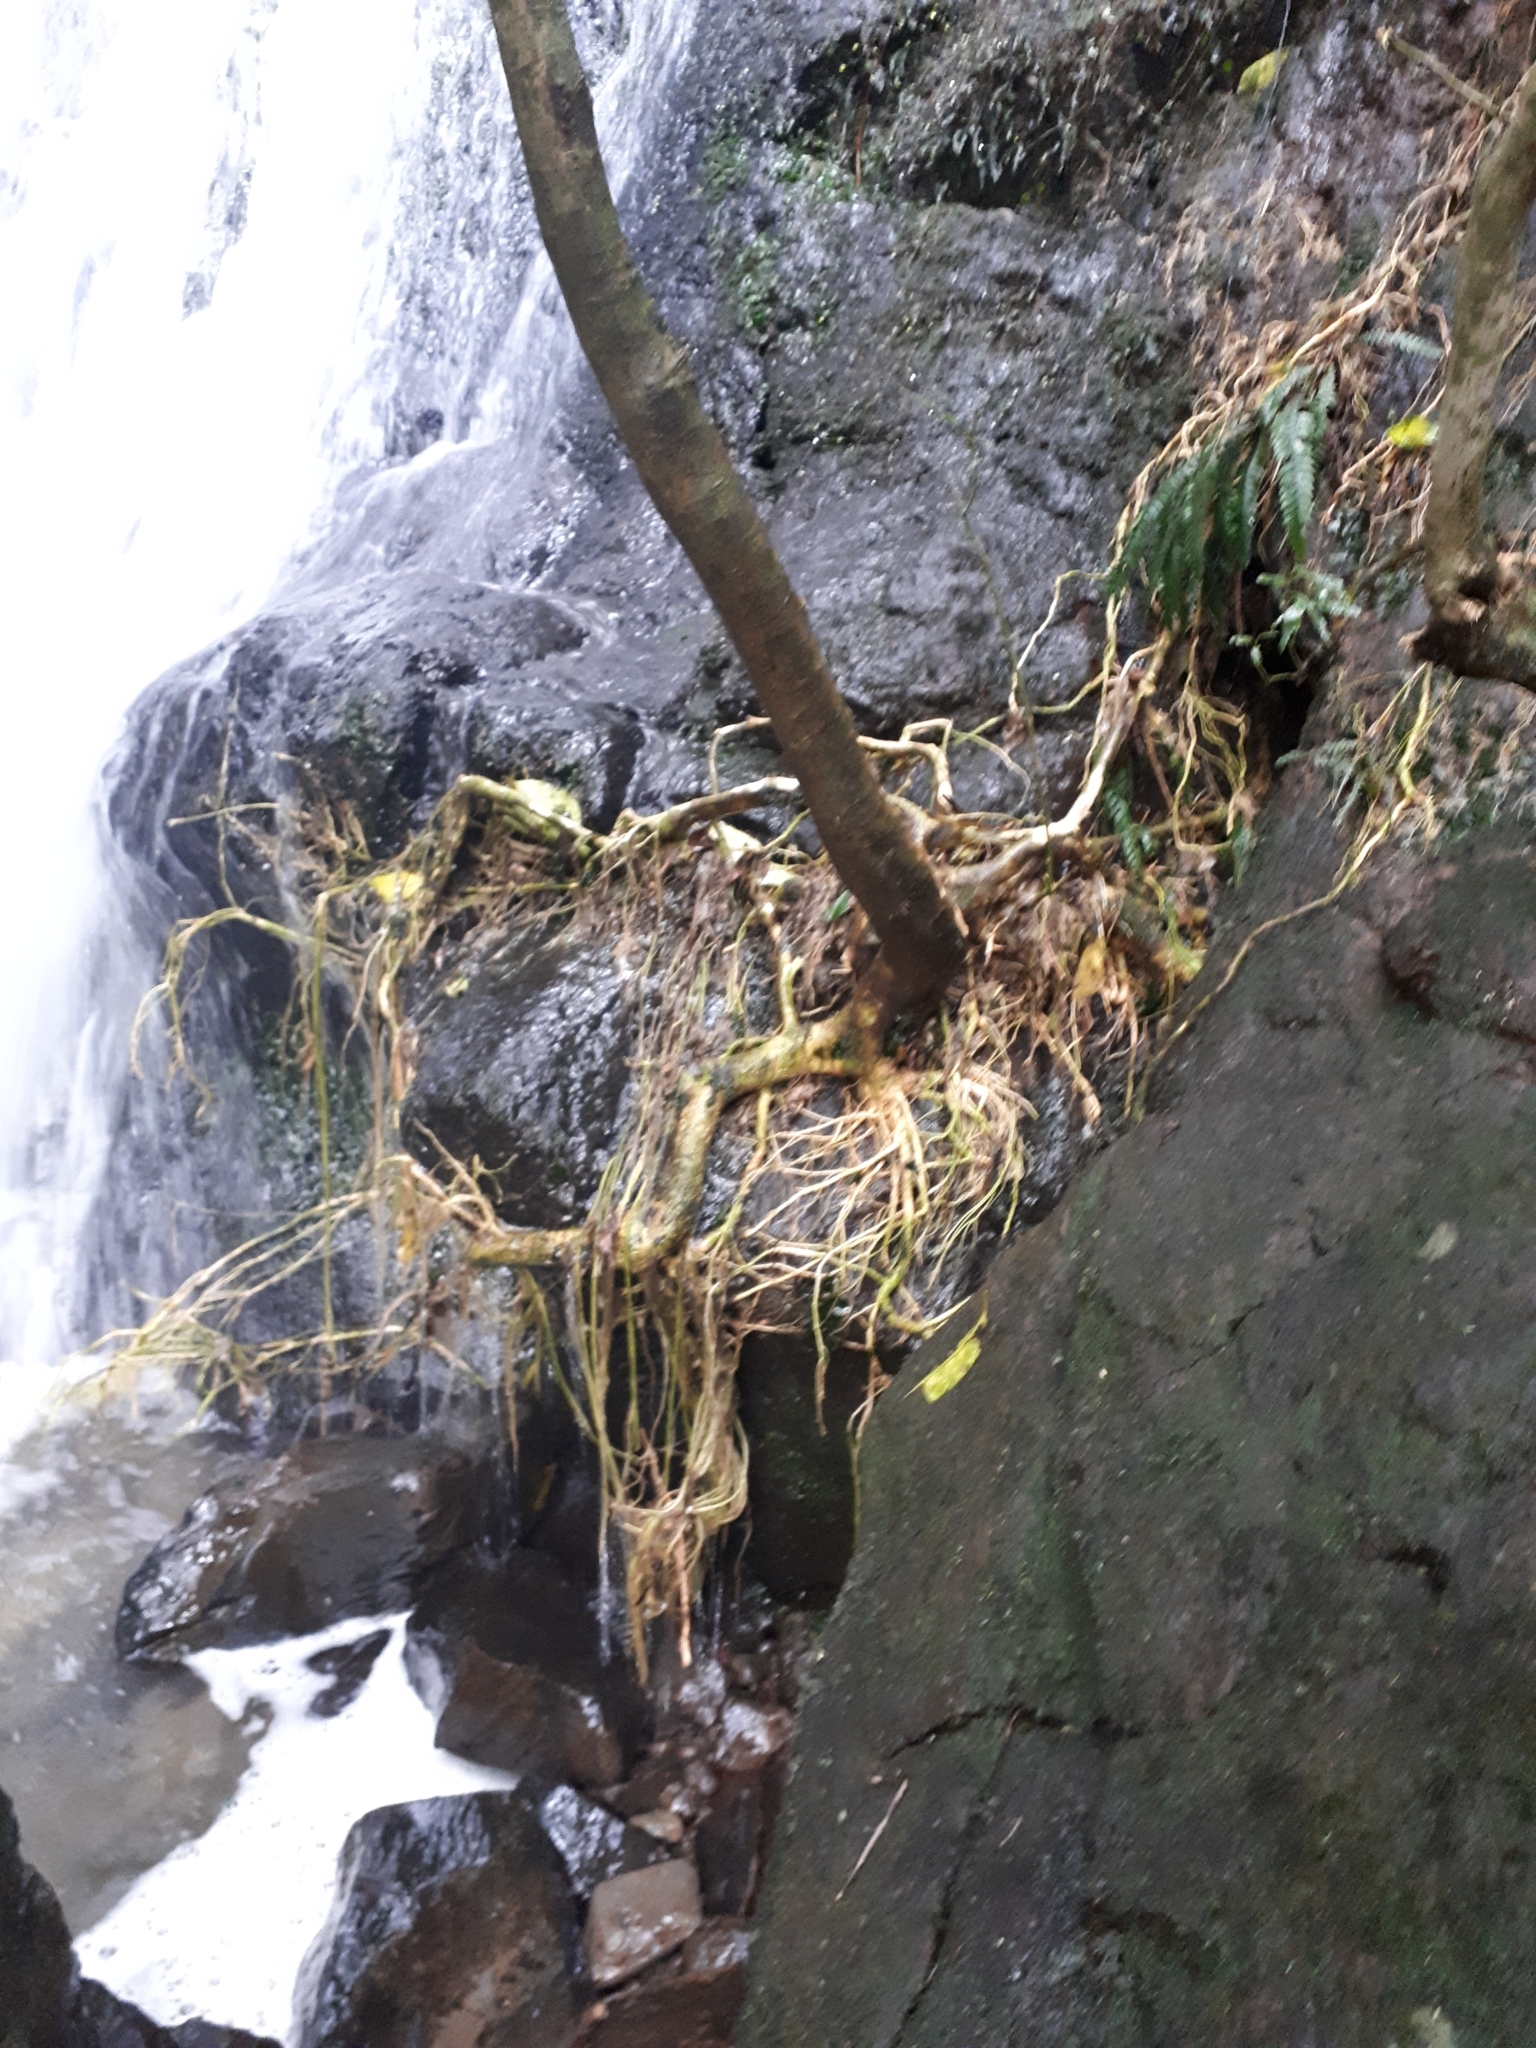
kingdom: Plantae
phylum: Tracheophyta
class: Magnoliopsida
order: Apiales
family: Araliaceae
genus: Schefflera
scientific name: Schefflera digitata
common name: Pate
